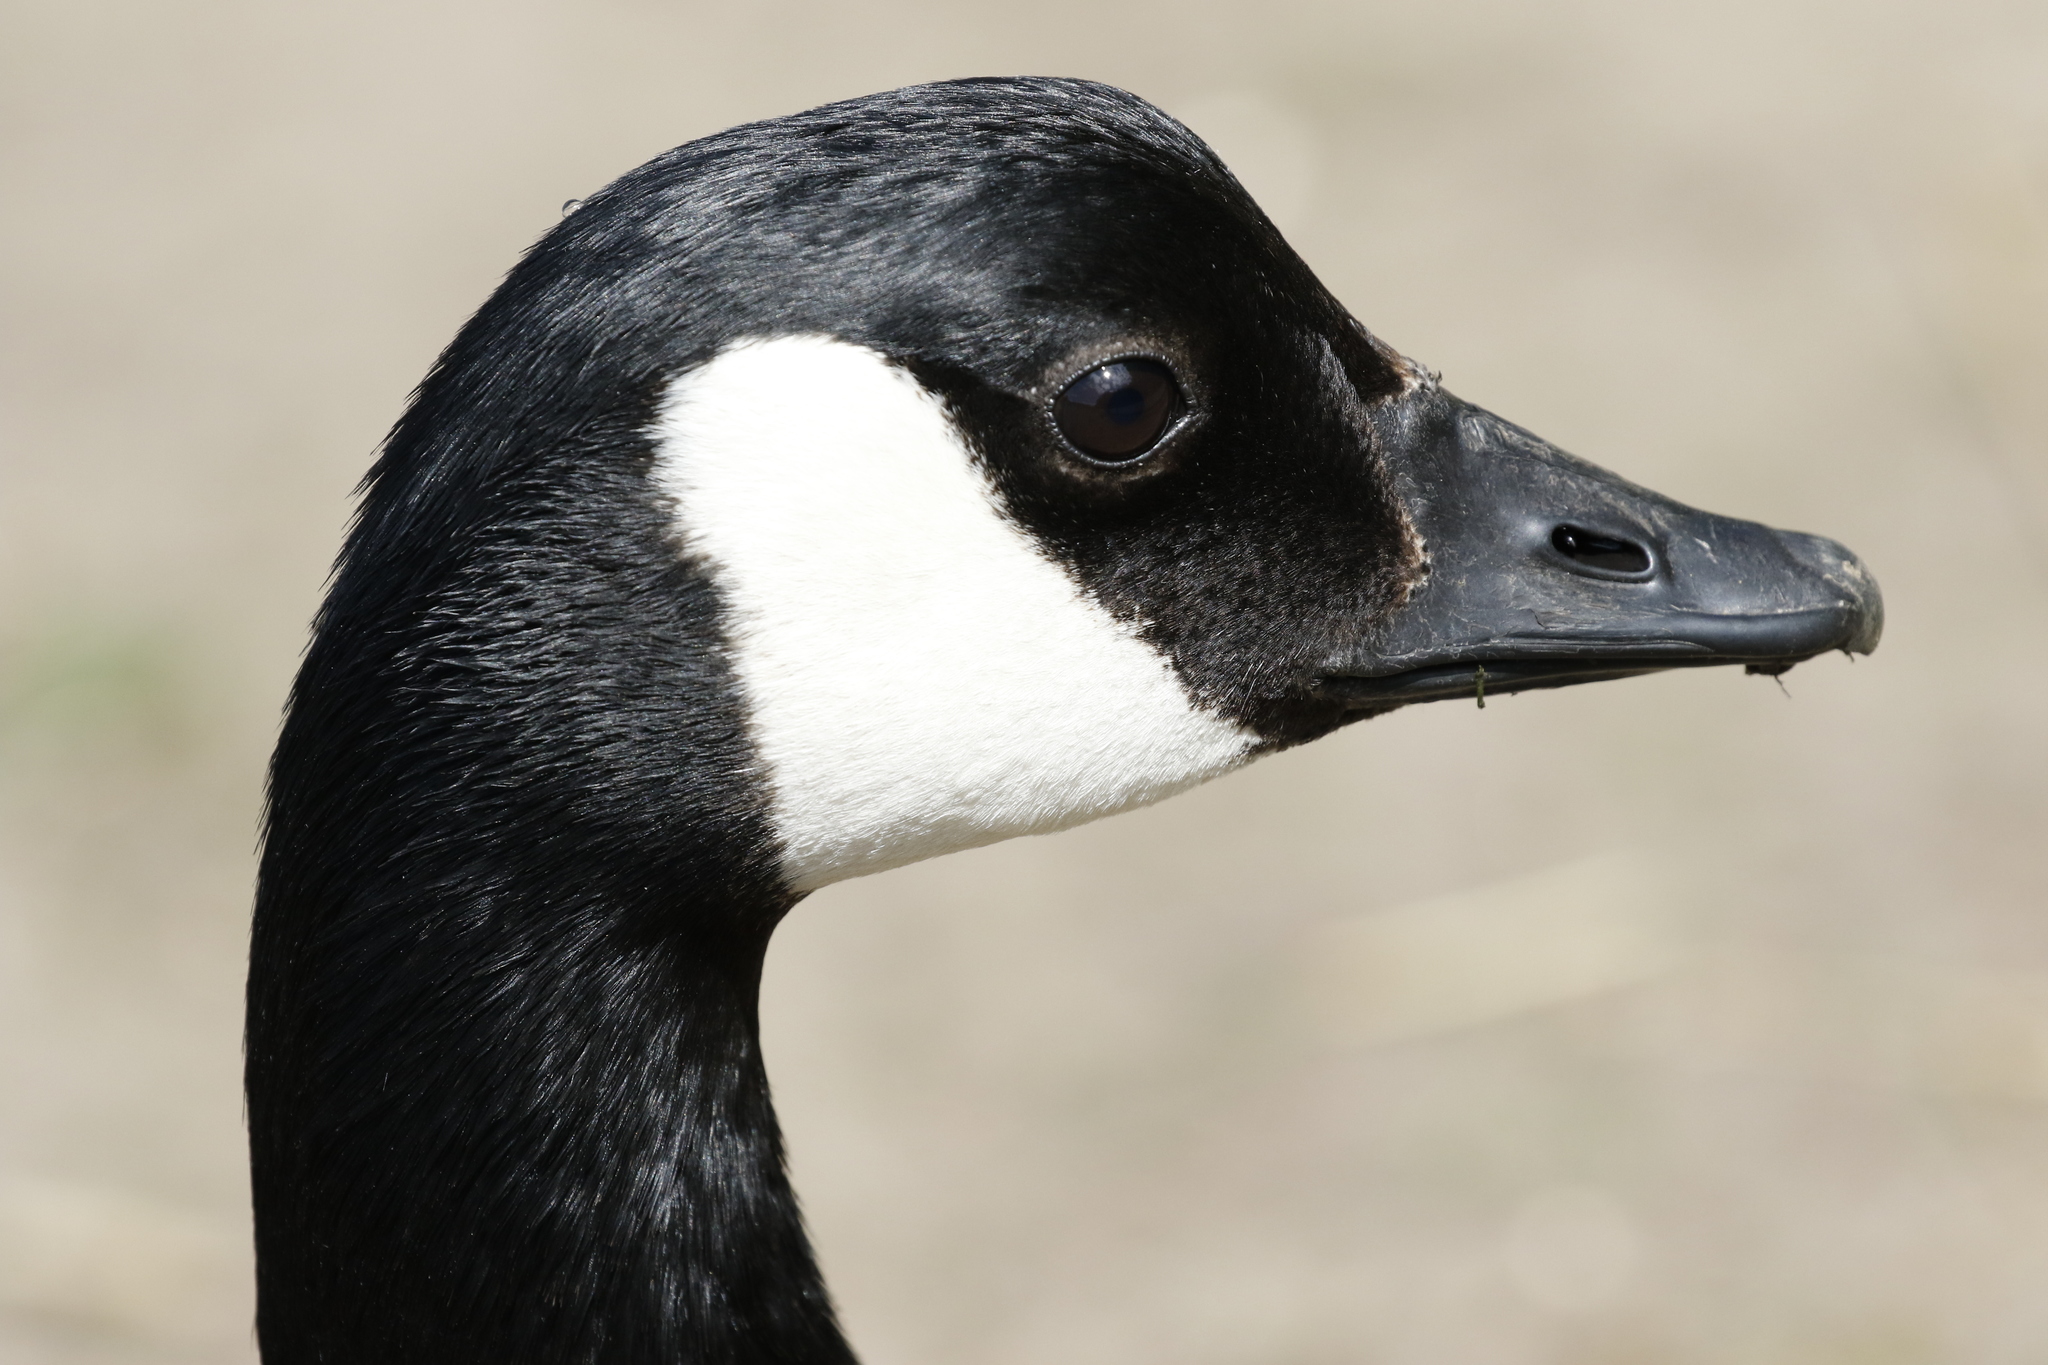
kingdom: Animalia
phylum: Chordata
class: Aves
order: Anseriformes
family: Anatidae
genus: Branta
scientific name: Branta canadensis
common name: Canada goose
